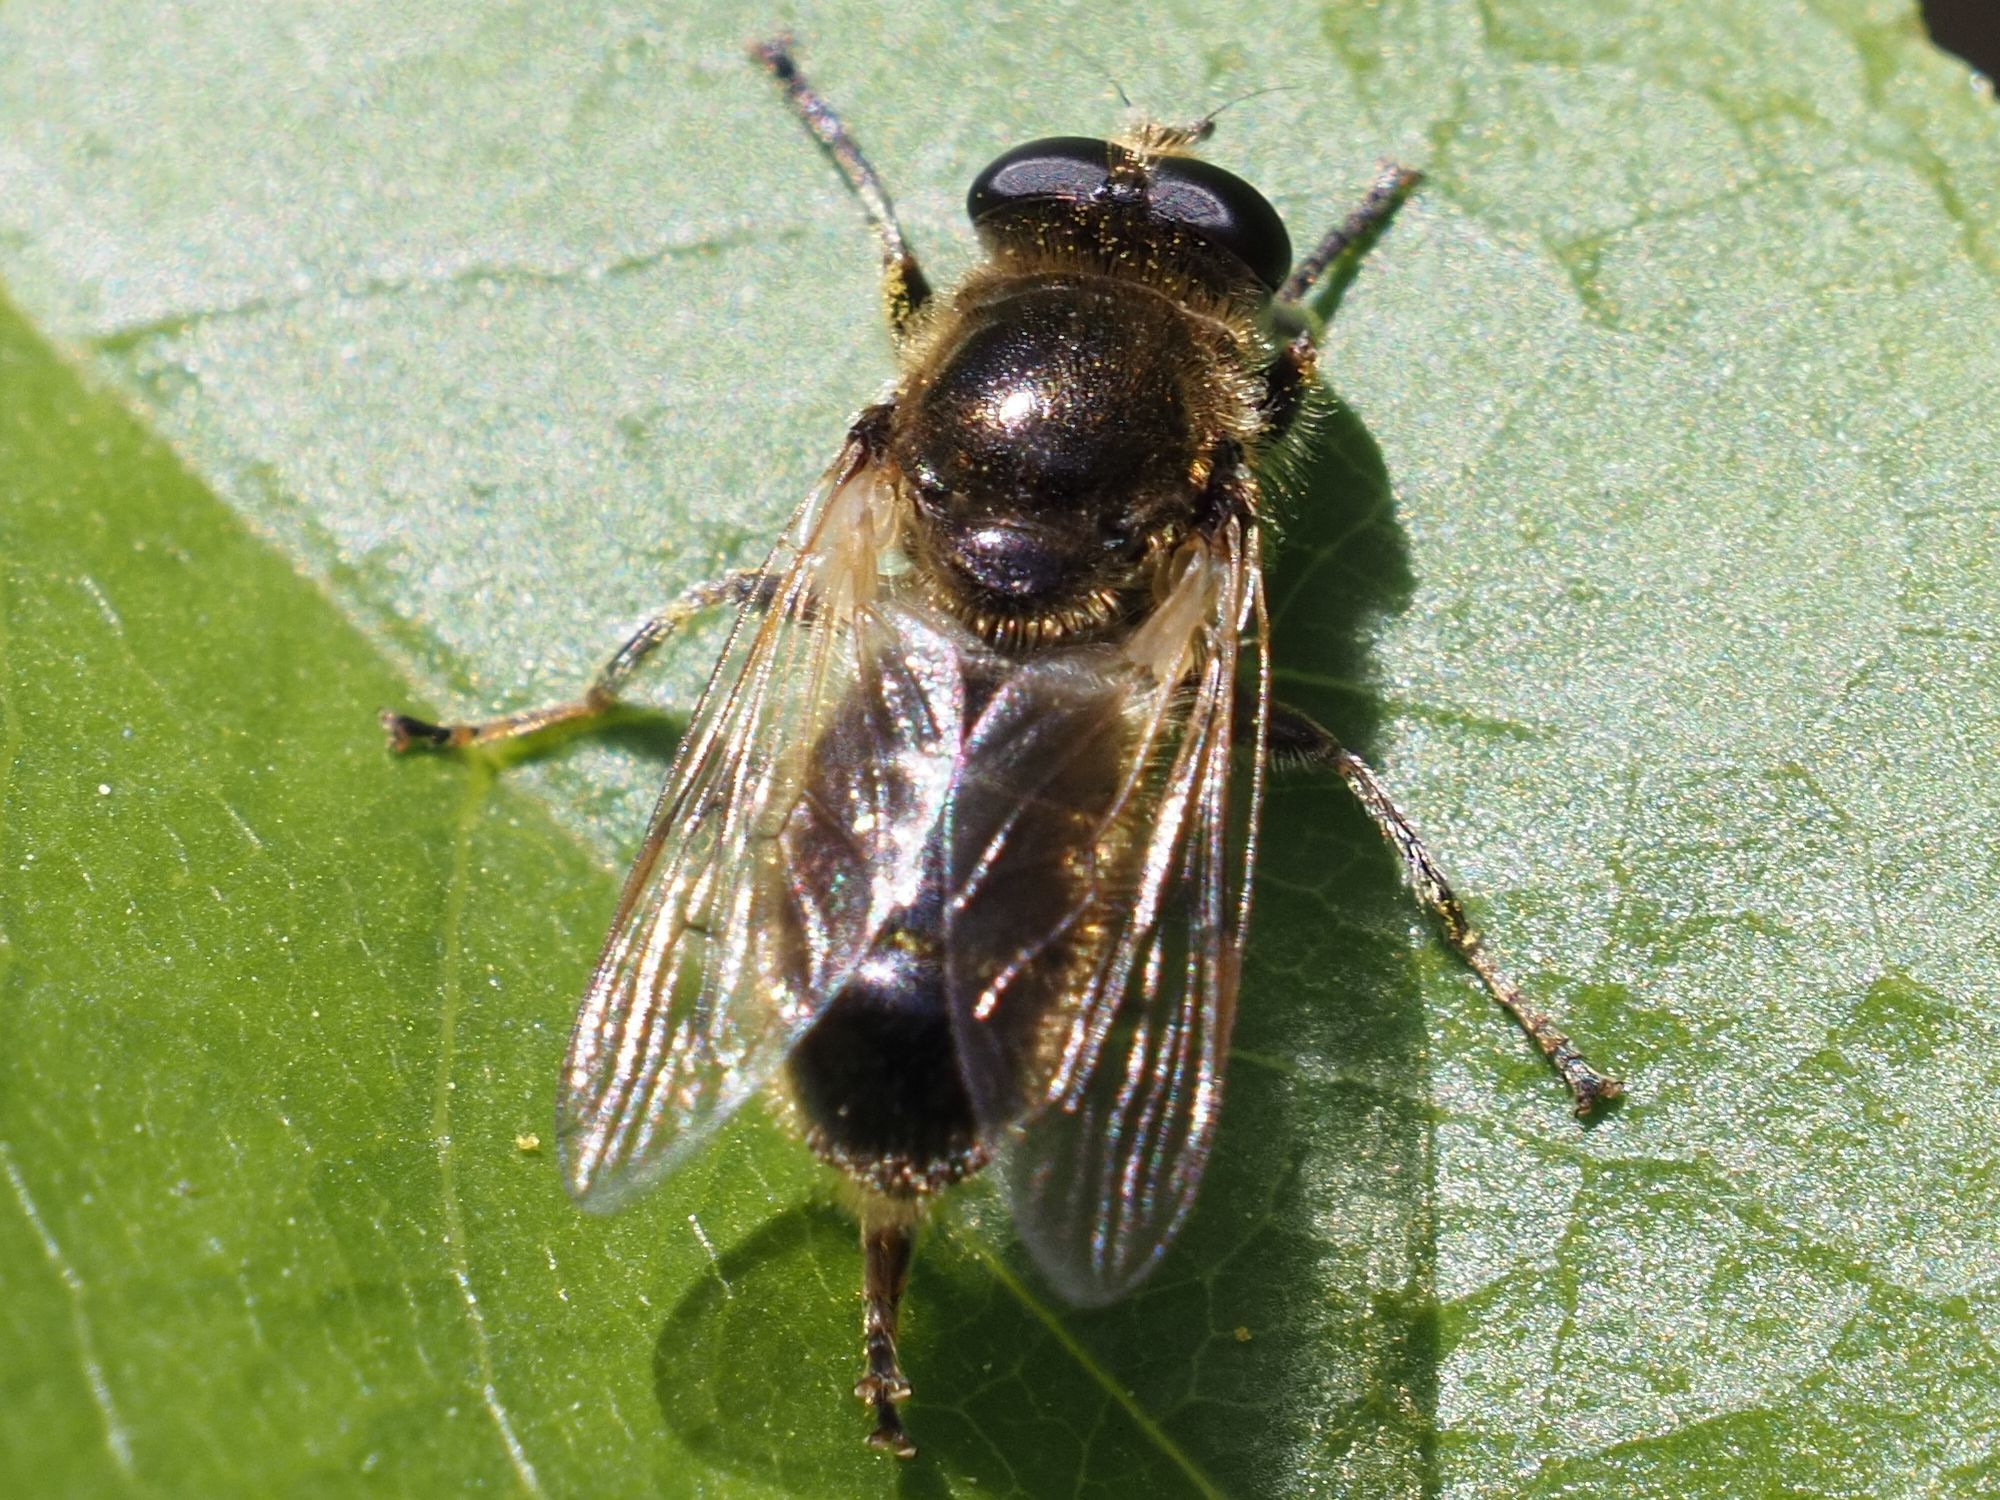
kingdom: Animalia
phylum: Arthropoda
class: Insecta
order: Diptera
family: Syrphidae
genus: Myolepta
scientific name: Myolepta obscura
